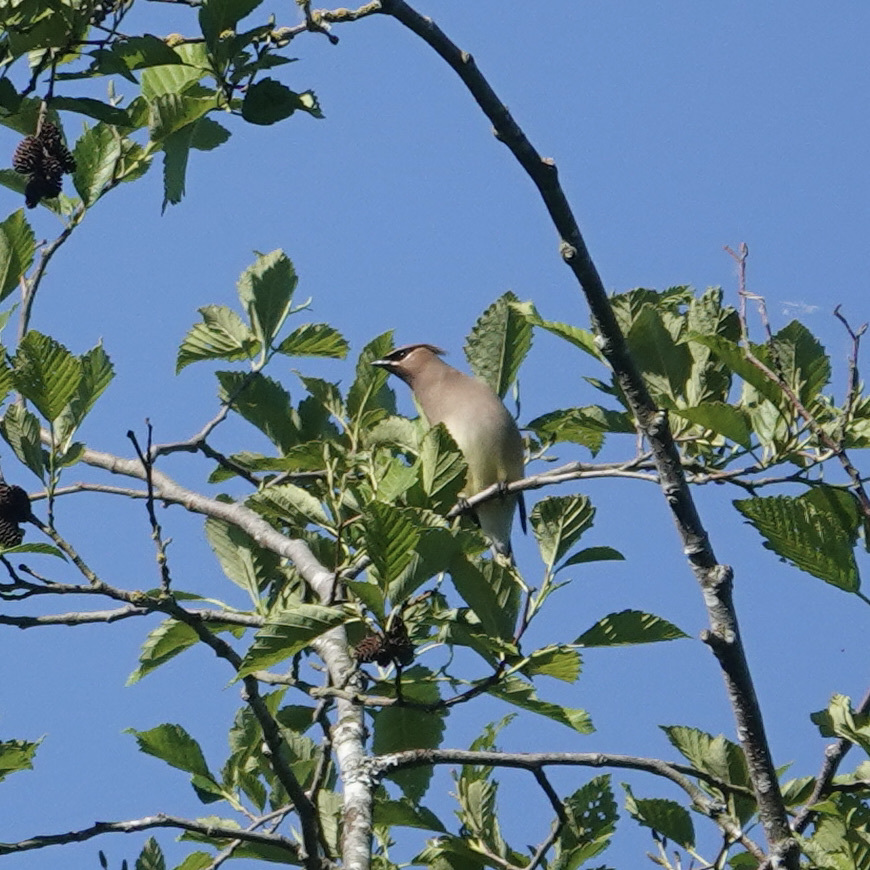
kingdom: Animalia
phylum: Chordata
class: Aves
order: Passeriformes
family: Bombycillidae
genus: Bombycilla
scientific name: Bombycilla cedrorum
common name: Cedar waxwing
